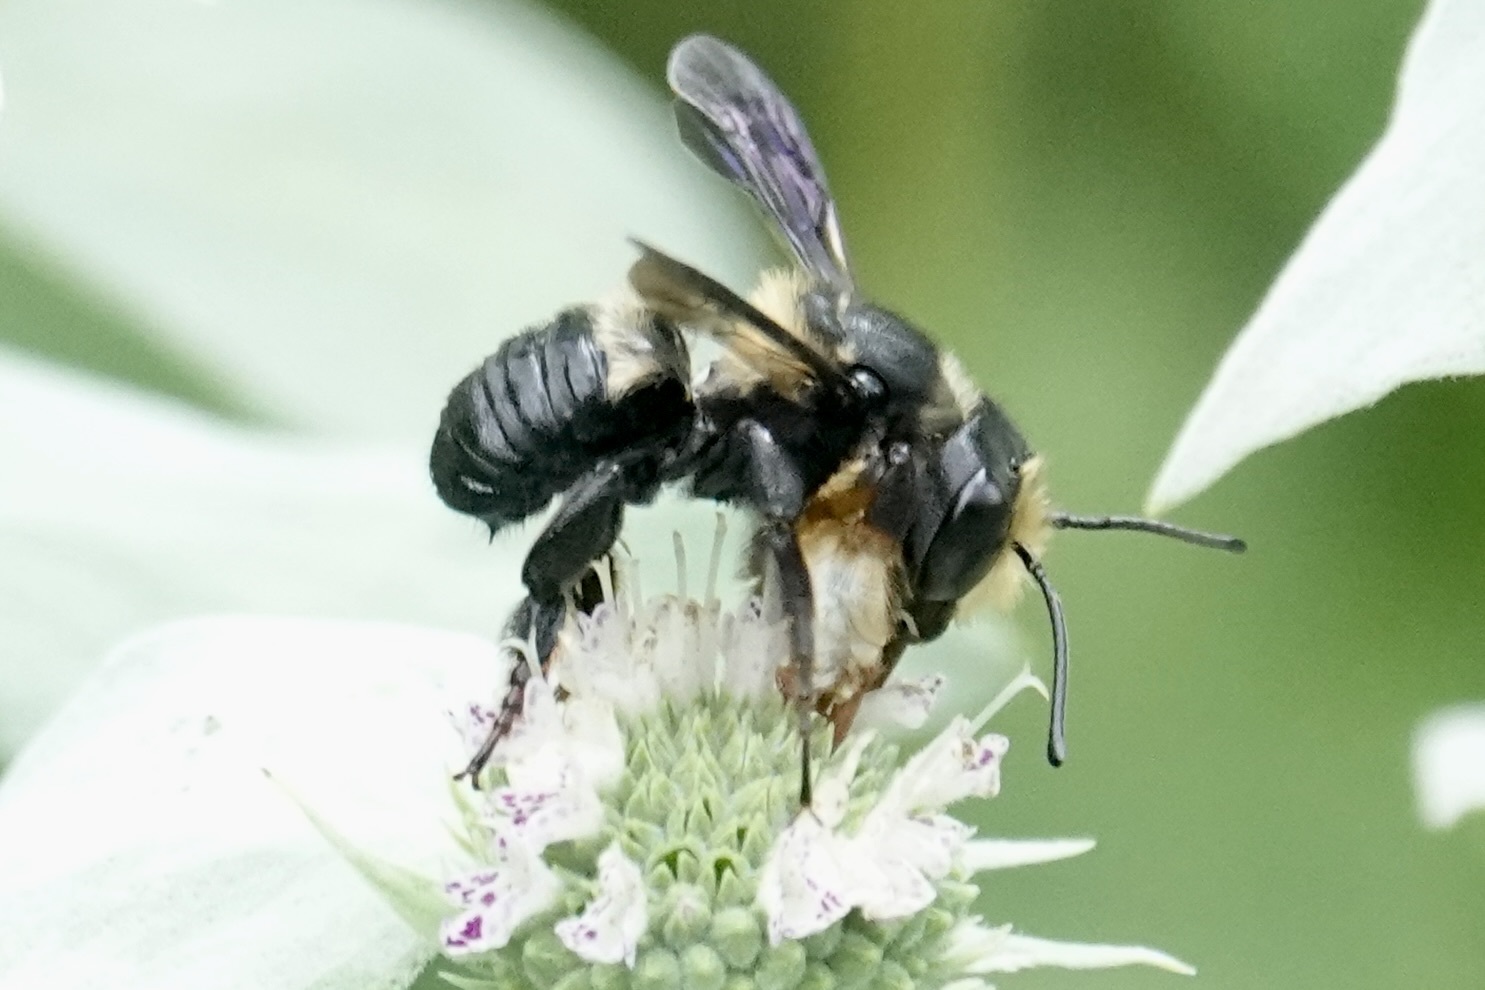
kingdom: Animalia
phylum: Arthropoda
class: Insecta
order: Hymenoptera
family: Megachilidae
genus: Megachile
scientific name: Megachile xylocopoides
